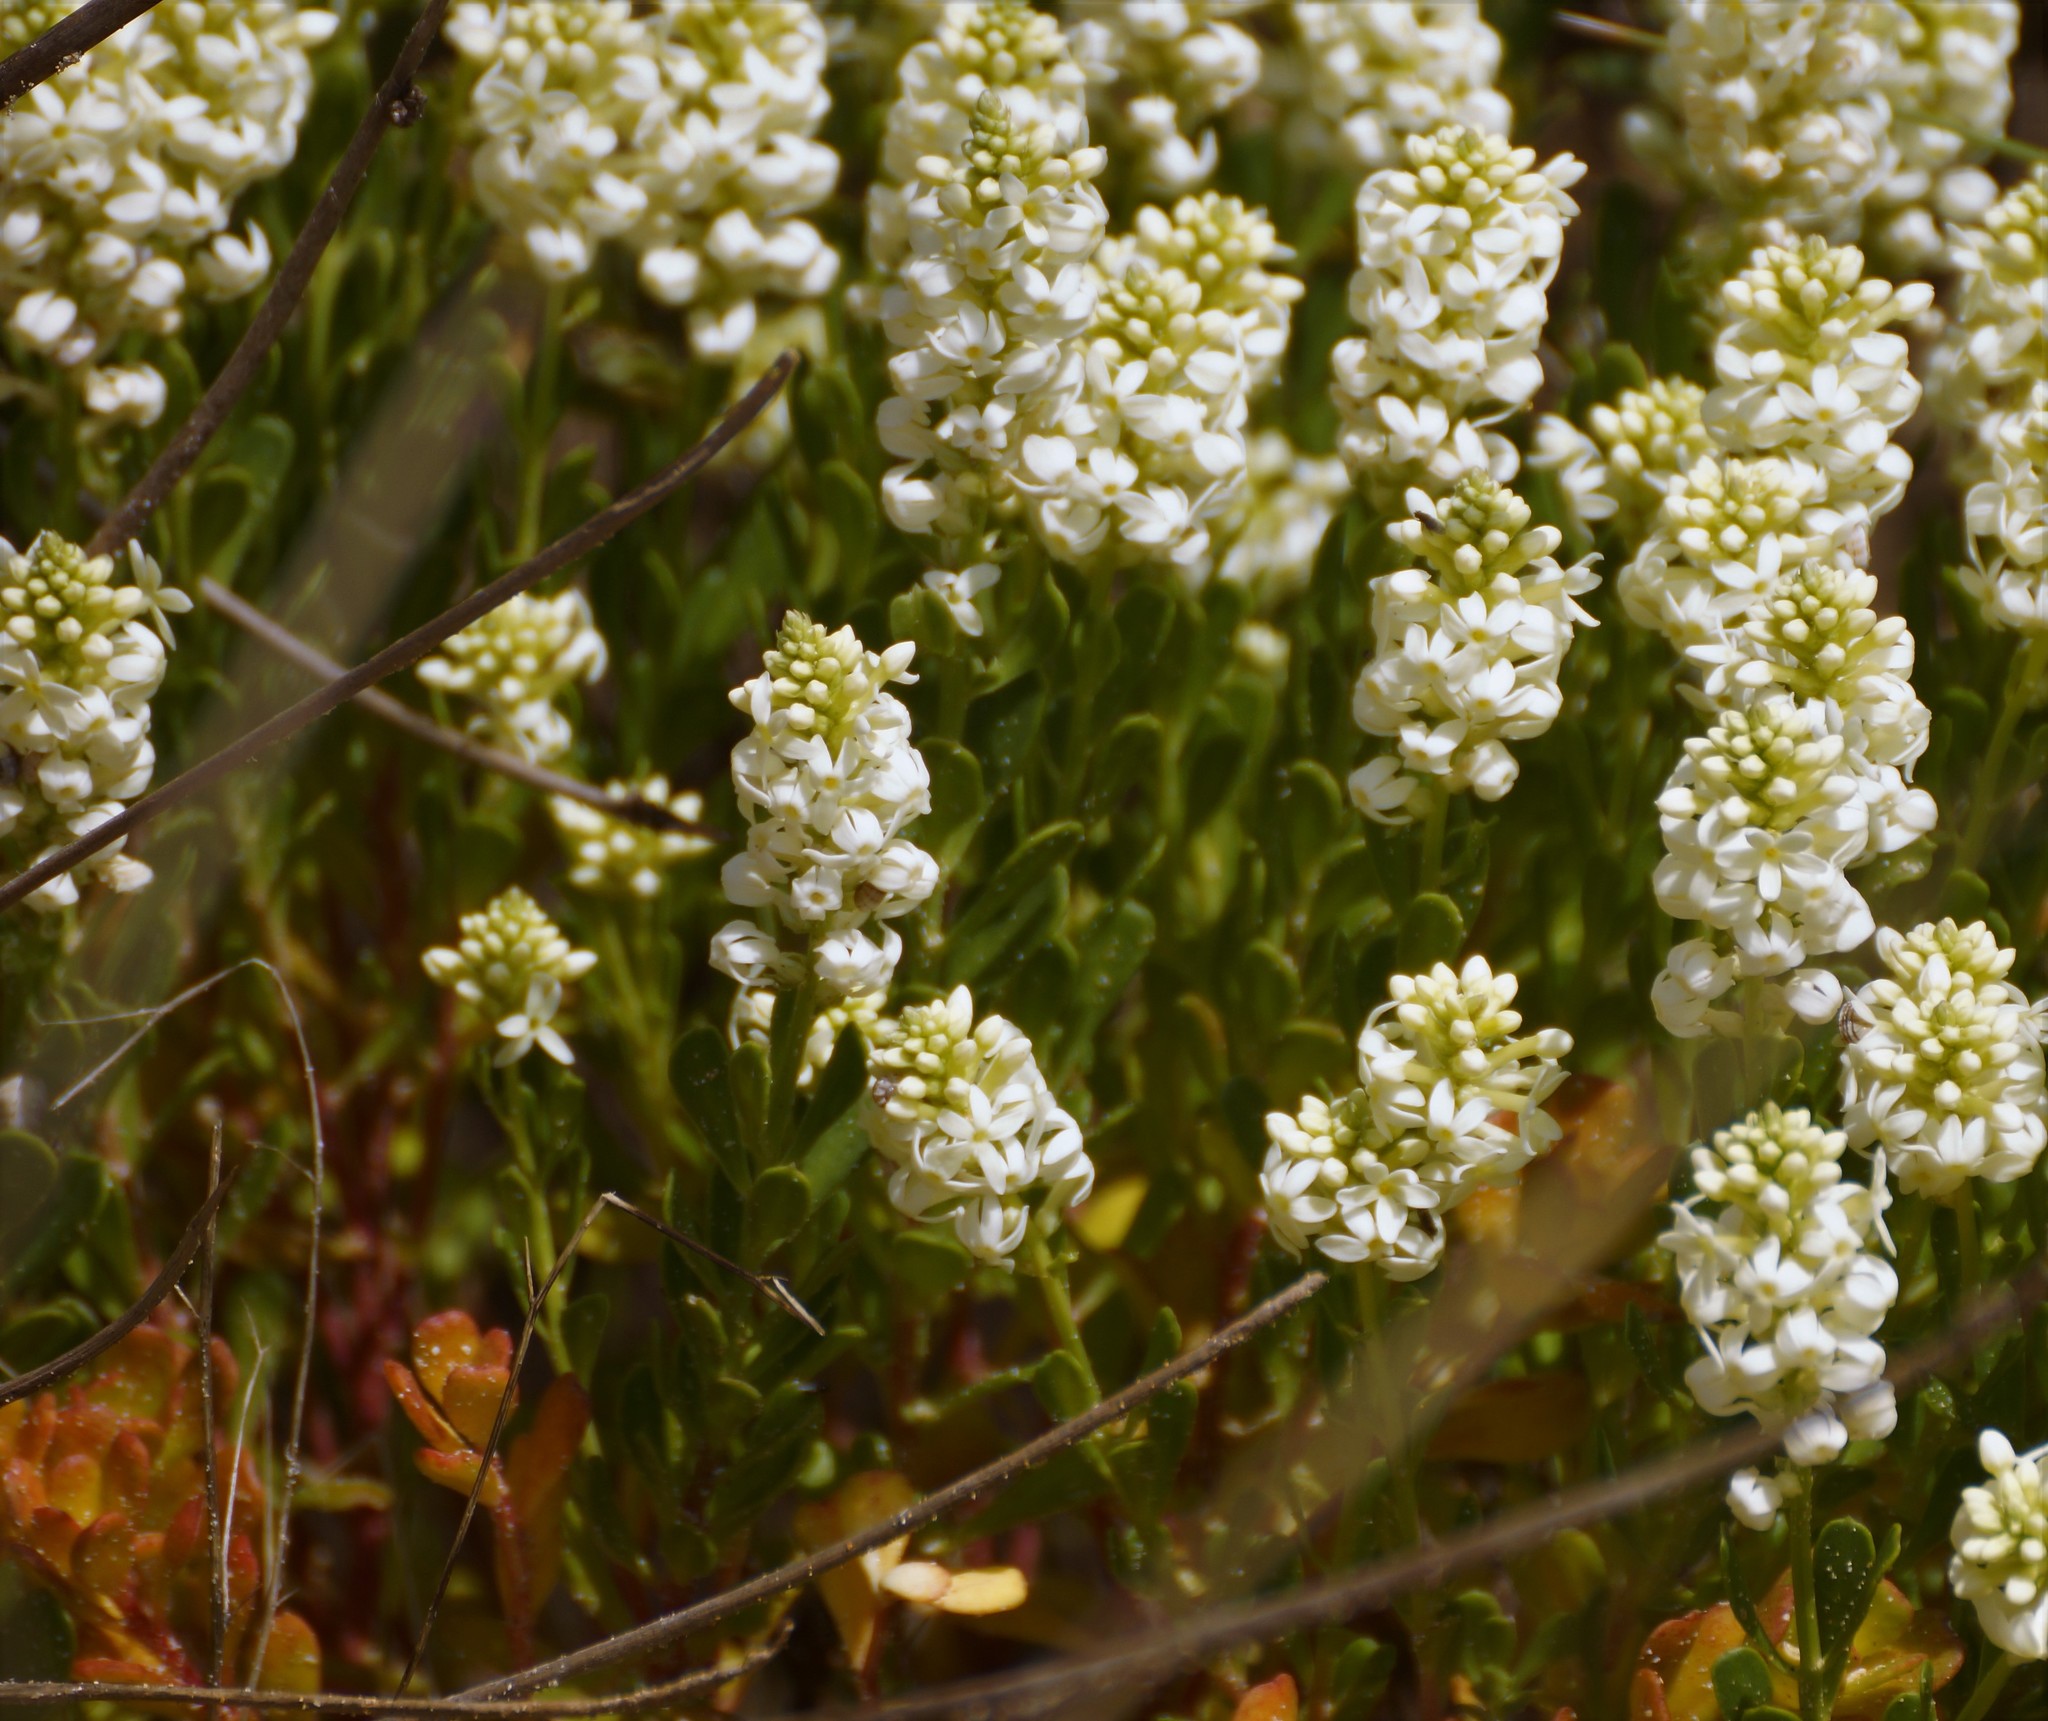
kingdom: Plantae
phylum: Tracheophyta
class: Magnoliopsida
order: Celastrales
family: Celastraceae
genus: Stackhousia
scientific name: Stackhousia spathulata
